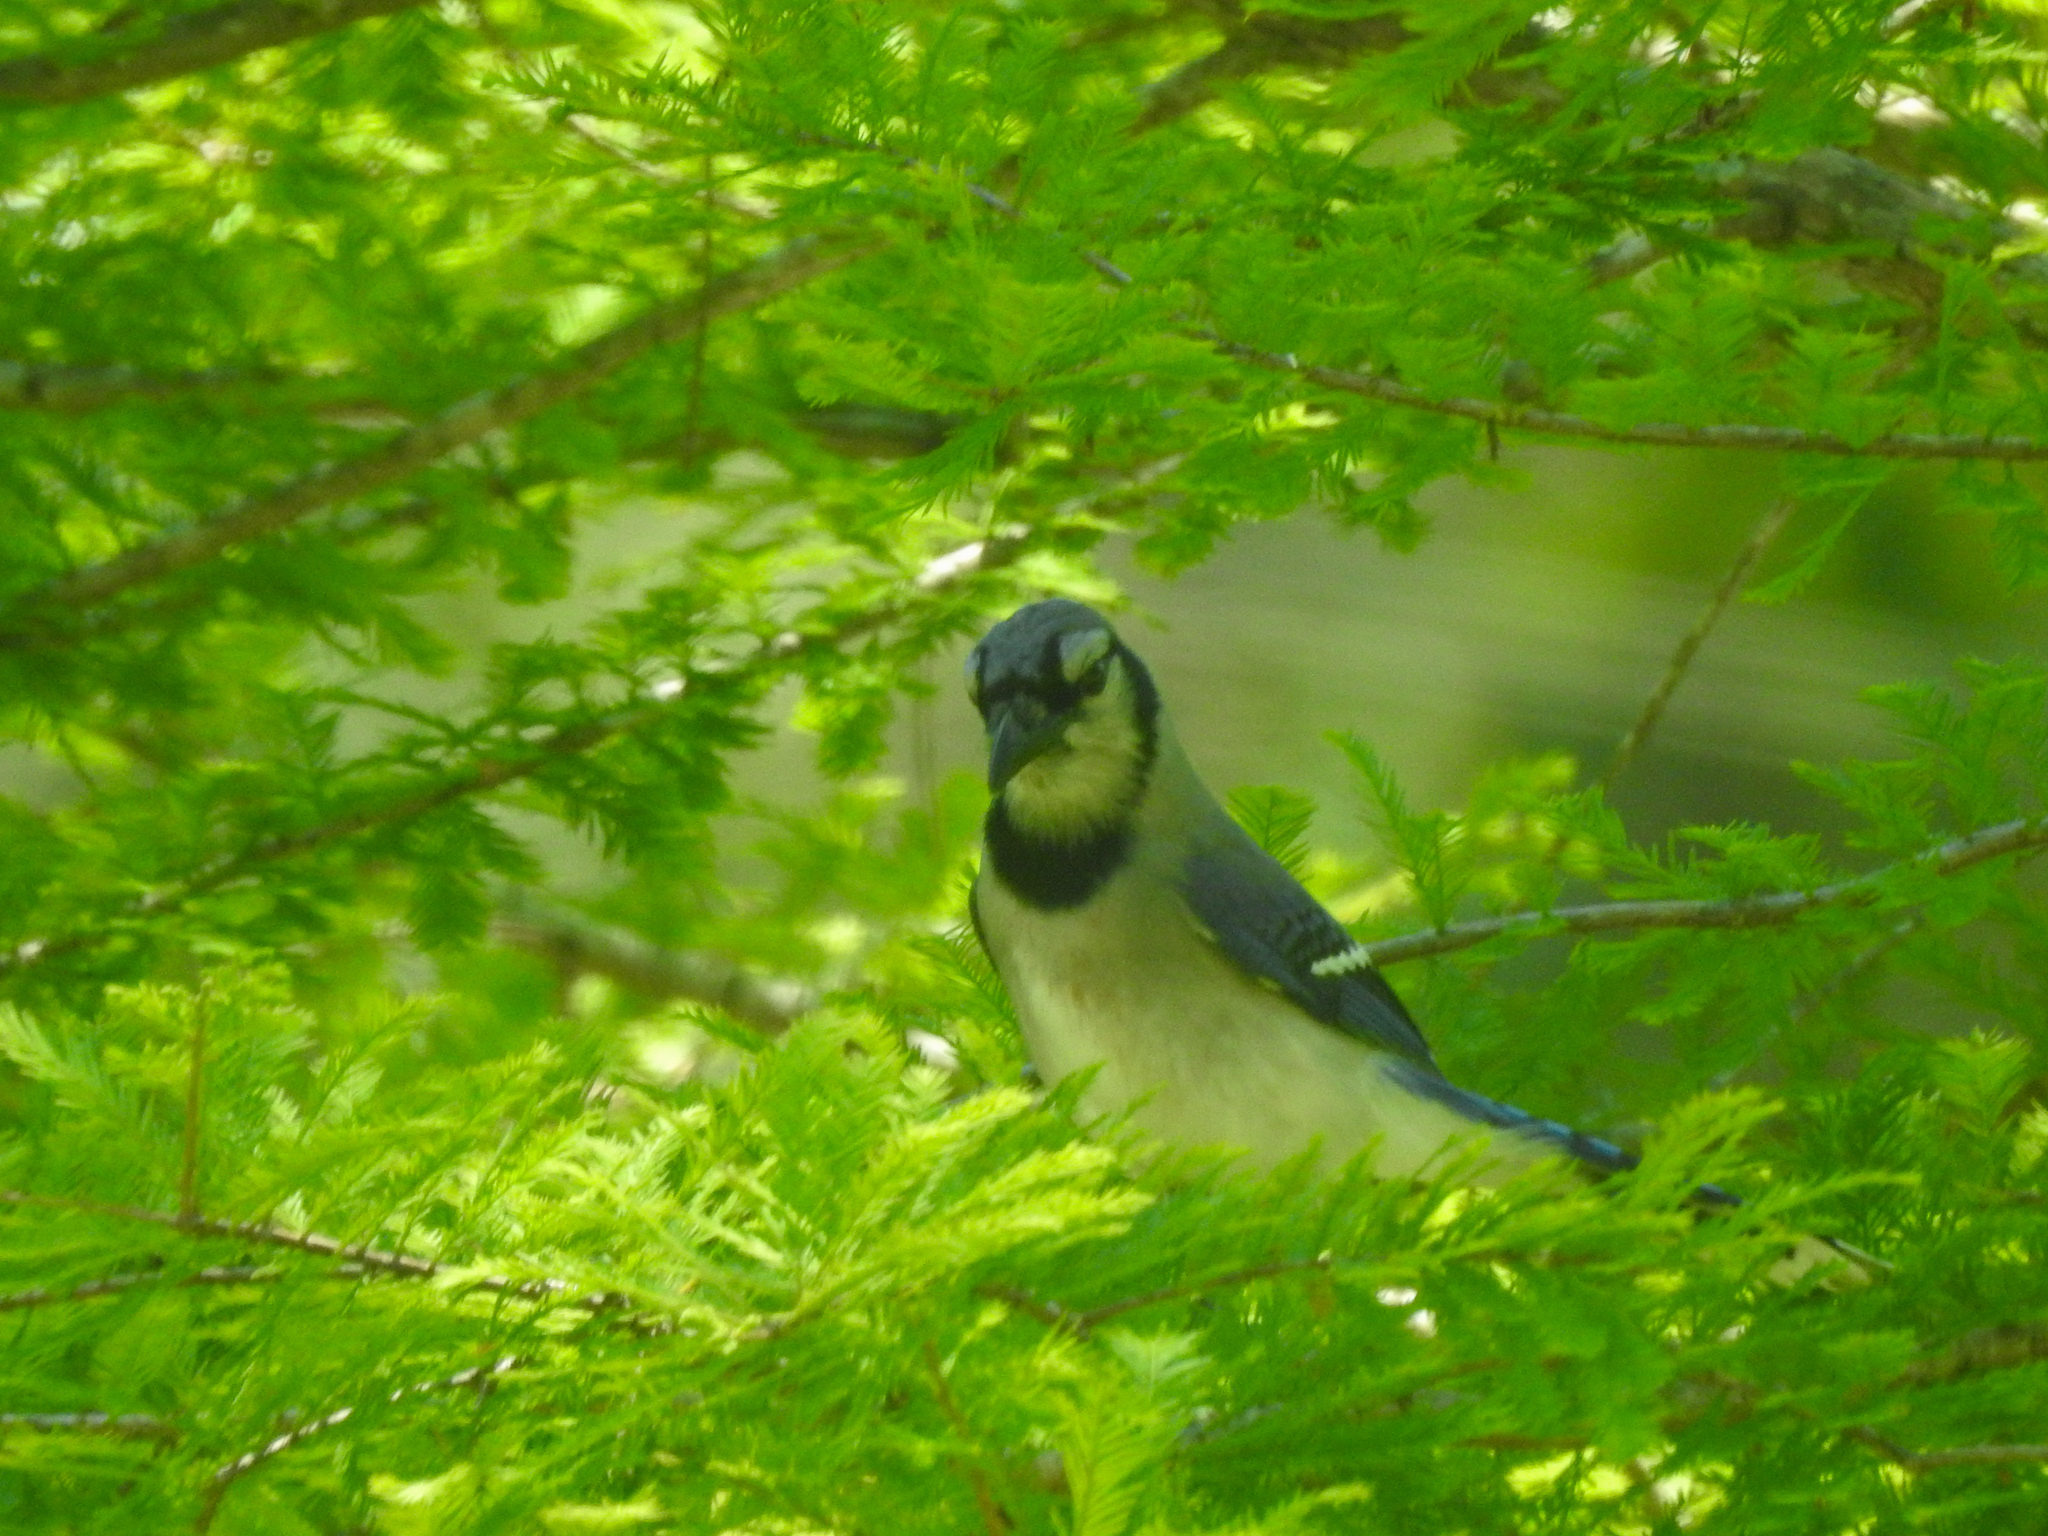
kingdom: Animalia
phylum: Chordata
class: Aves
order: Passeriformes
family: Corvidae
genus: Cyanocitta
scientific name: Cyanocitta cristata
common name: Blue jay
